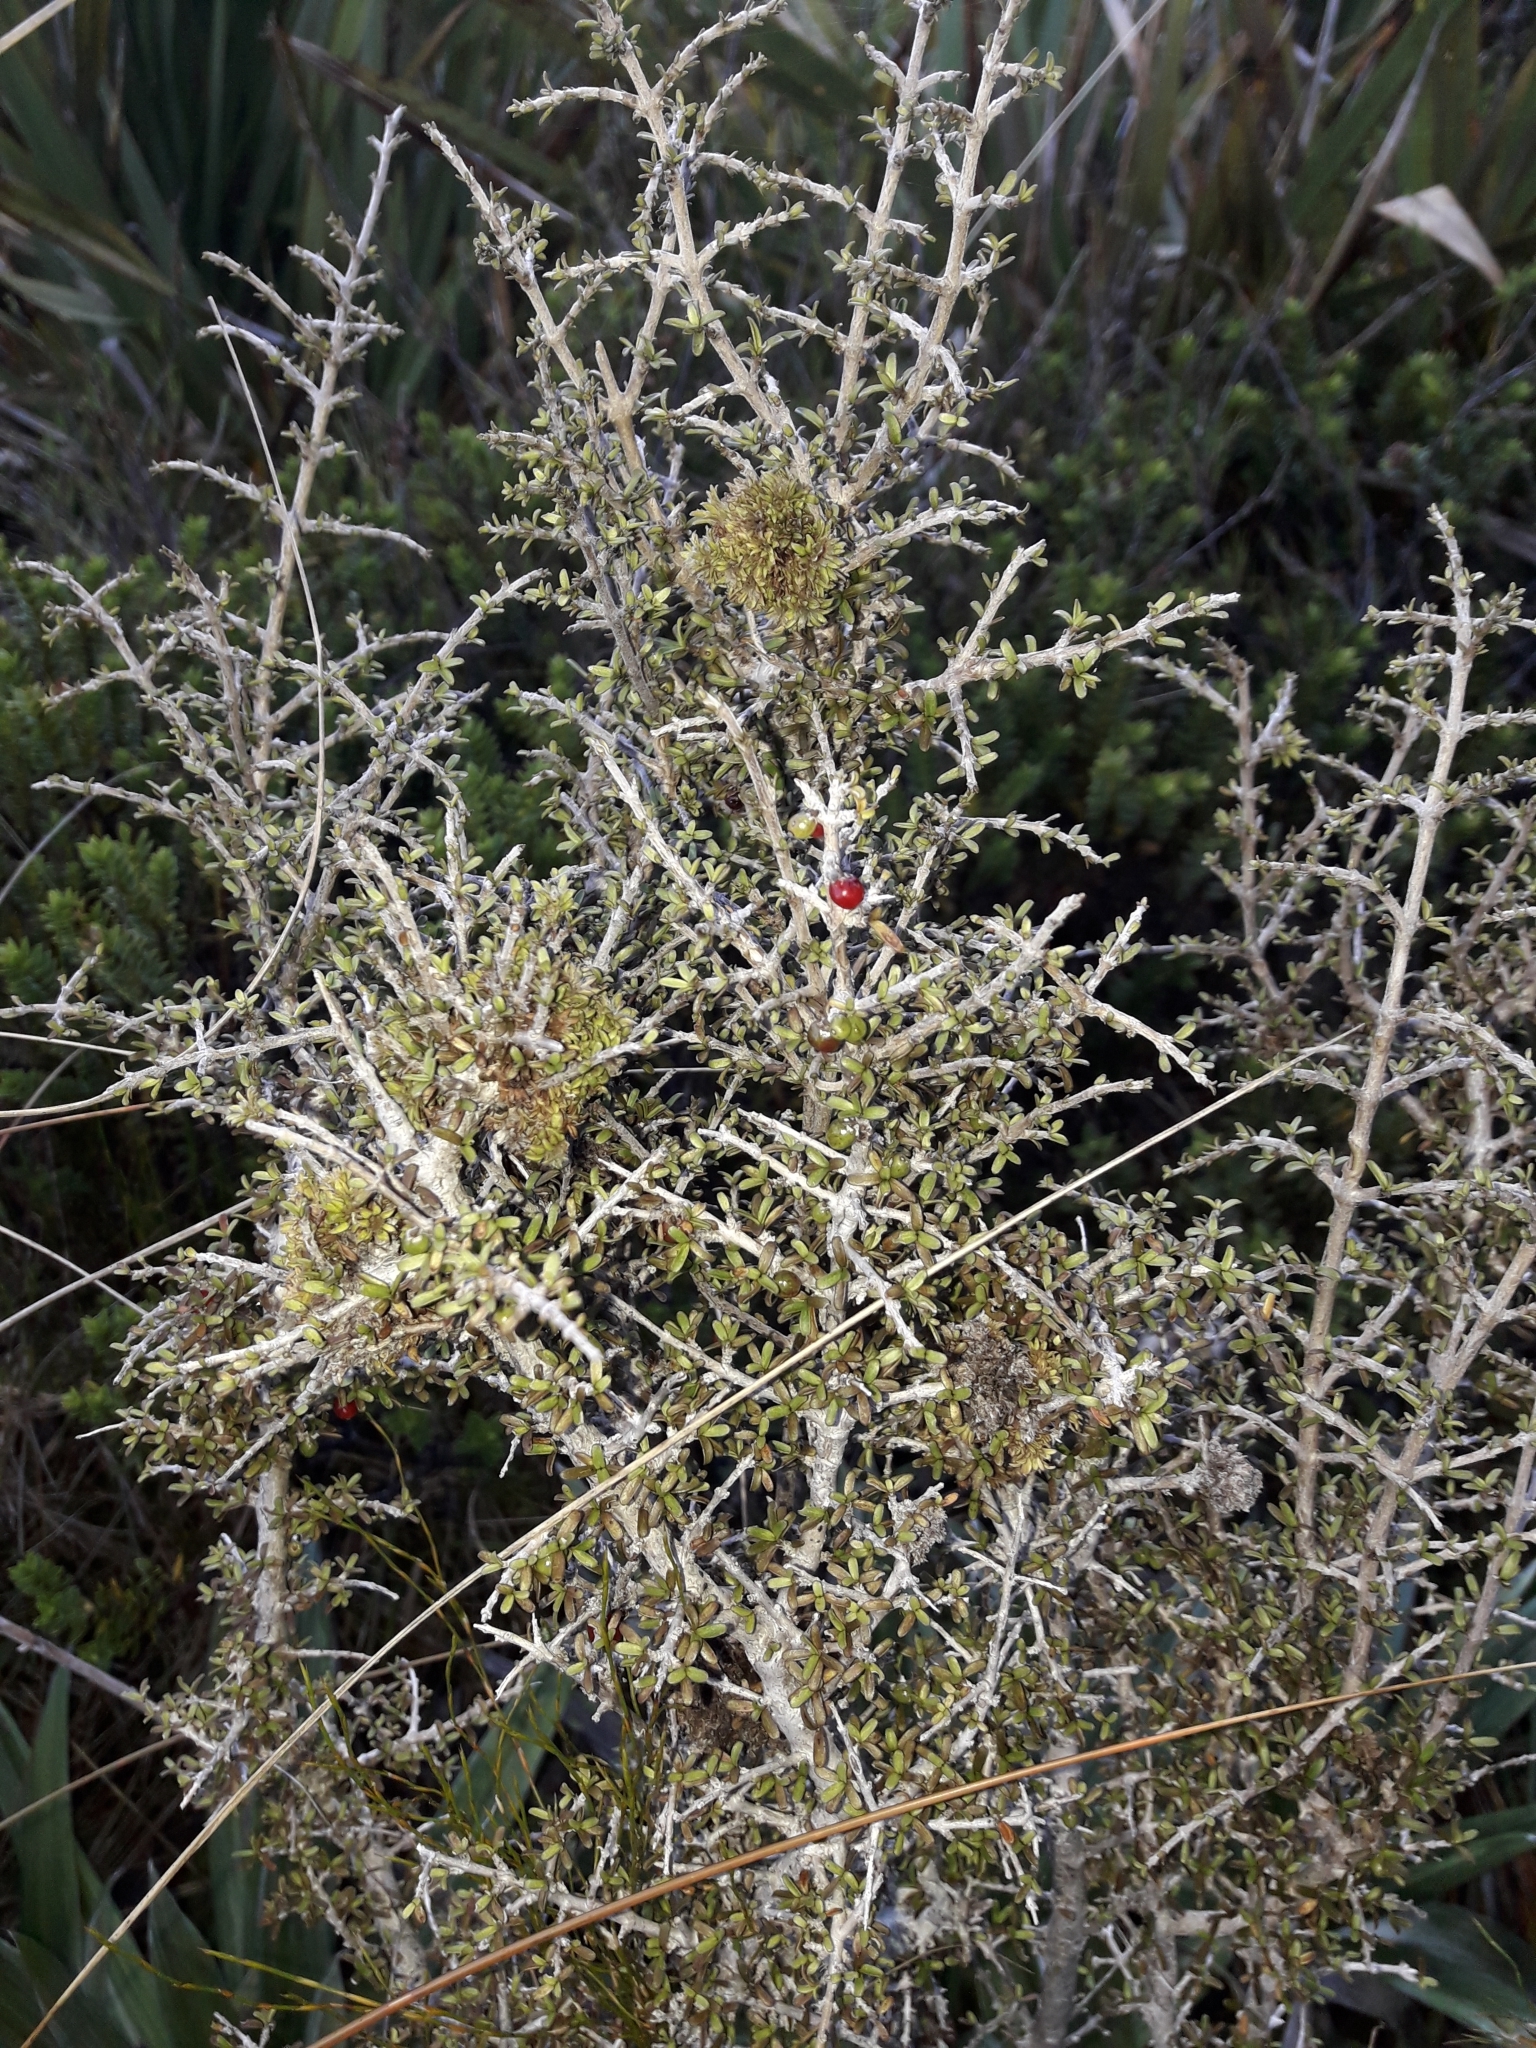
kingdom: Plantae
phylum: Tracheophyta
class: Magnoliopsida
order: Gentianales
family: Rubiaceae
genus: Coprosma
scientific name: Coprosma decurva
